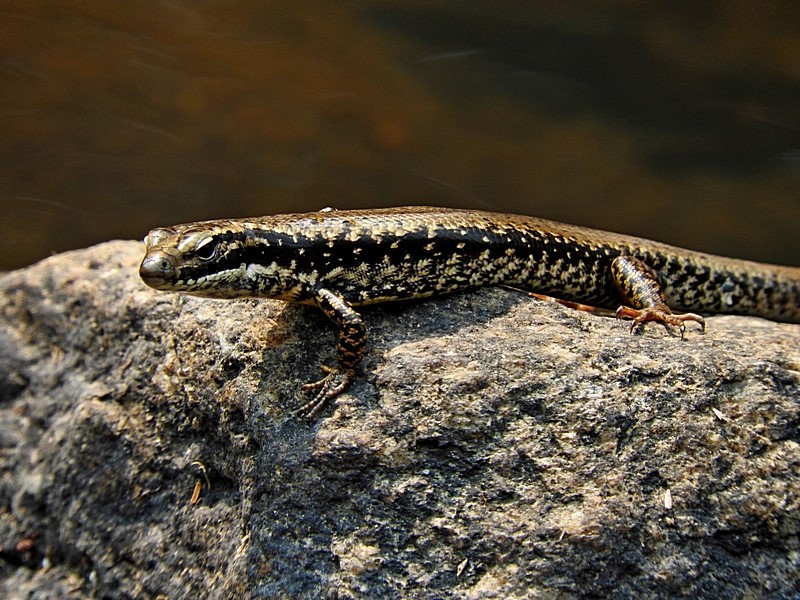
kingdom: Animalia
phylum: Chordata
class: Squamata
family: Scincidae
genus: Eulamprus
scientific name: Eulamprus heatwolei
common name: Warm-temperate water-skink
